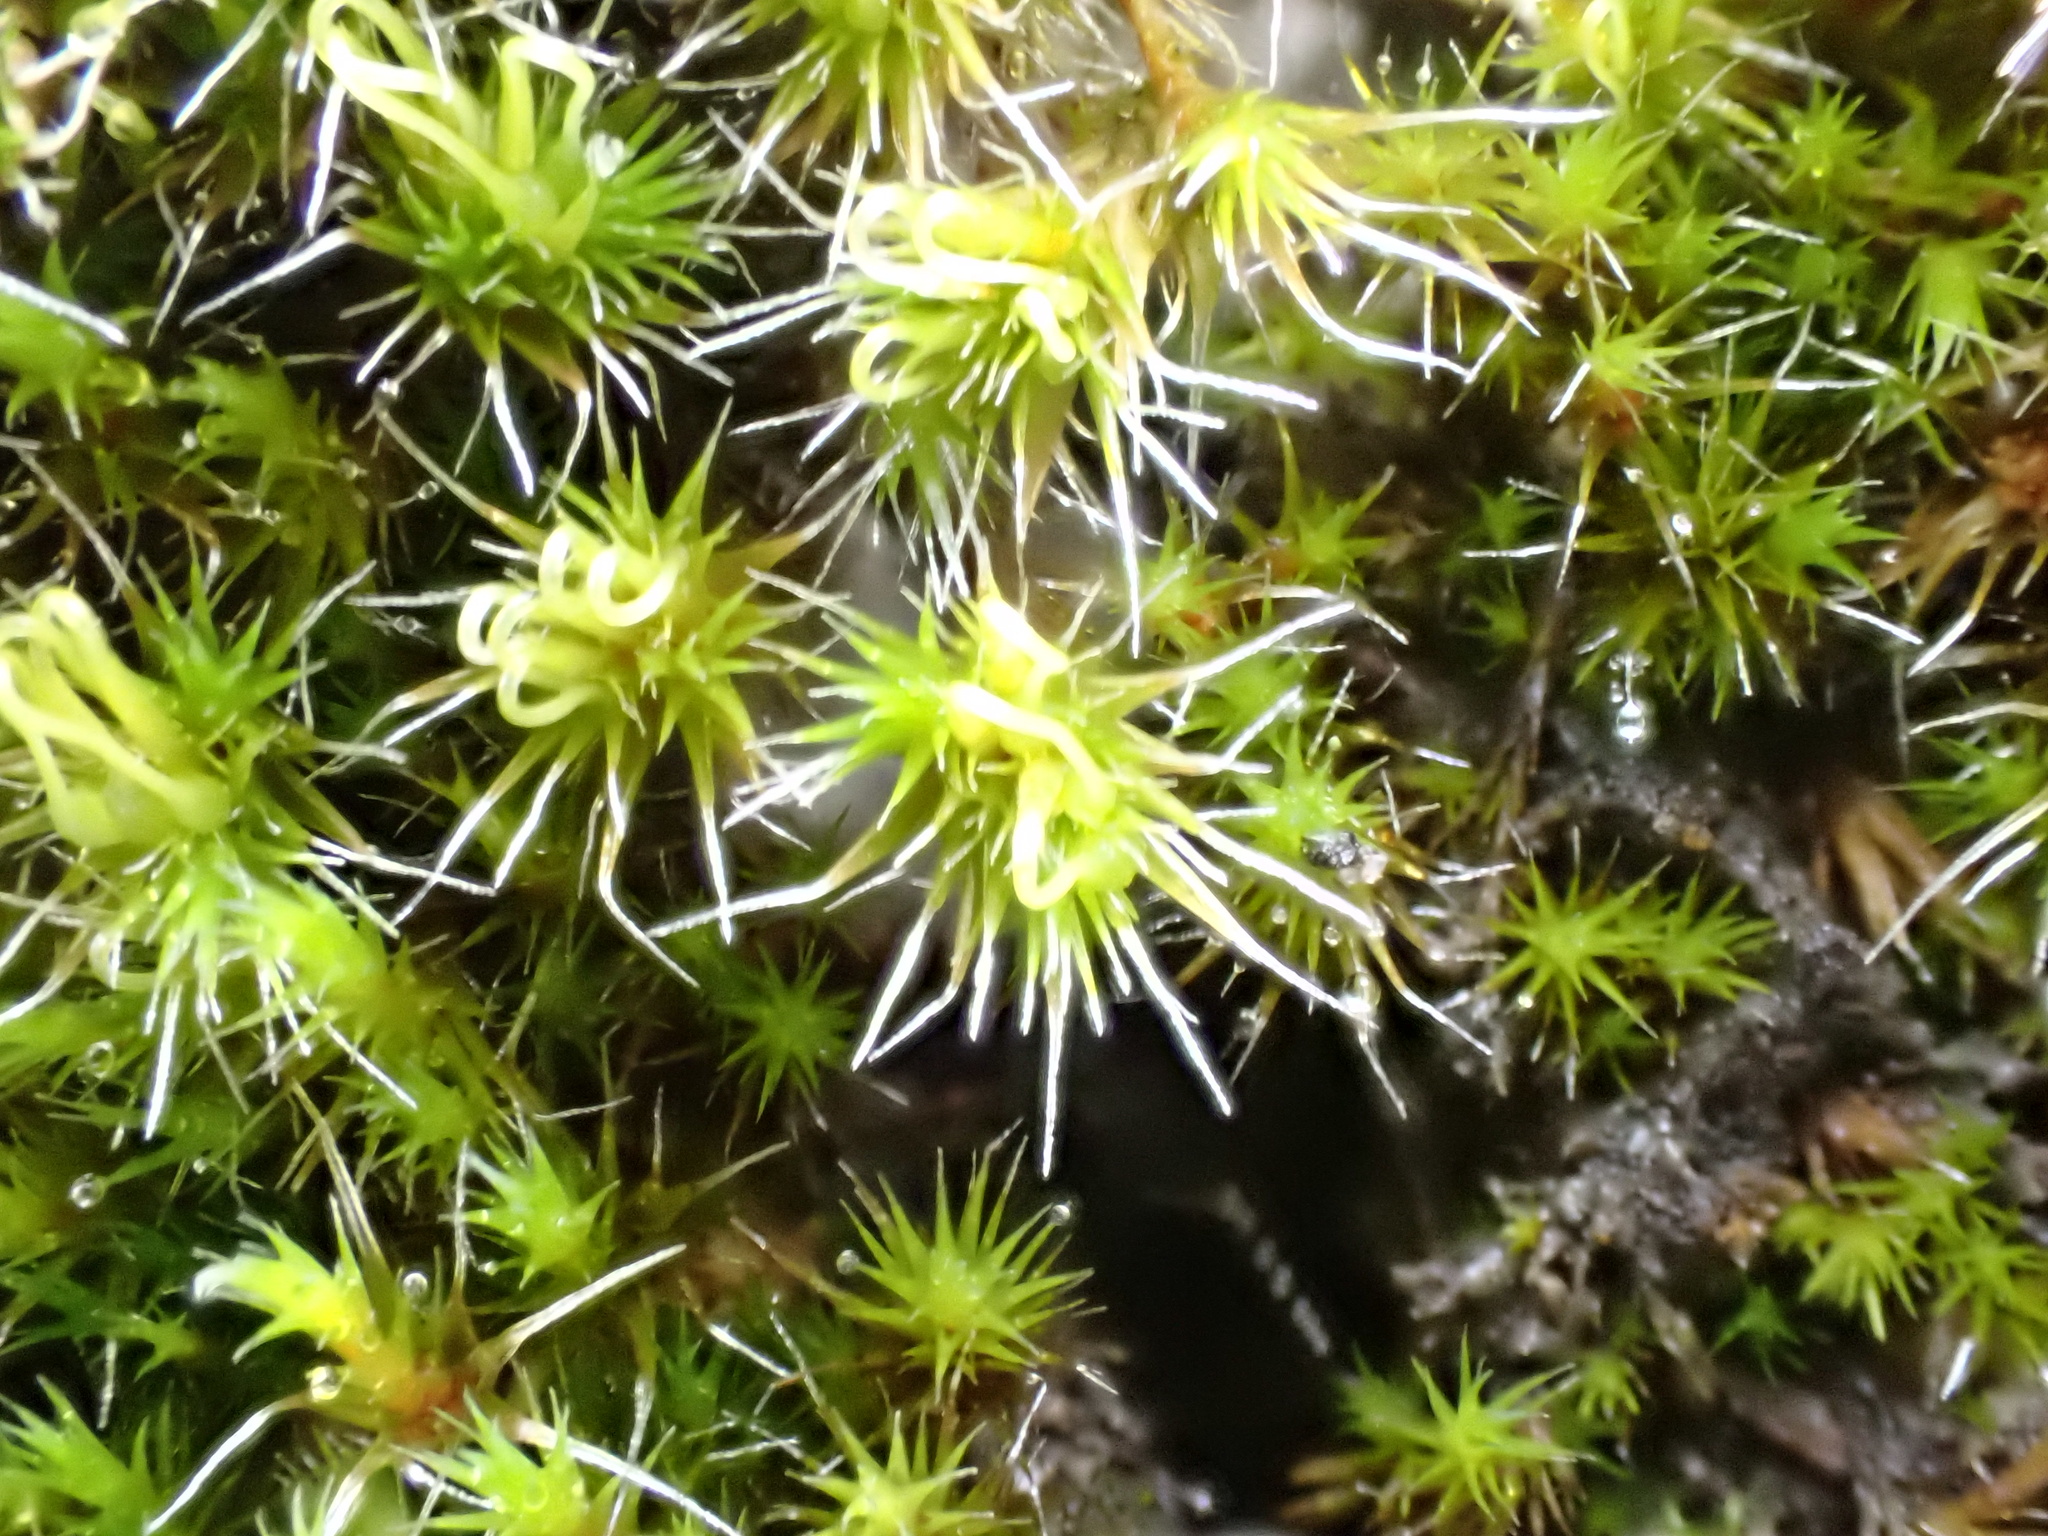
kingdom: Plantae
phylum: Bryophyta
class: Bryopsida
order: Dicranales
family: Leucobryaceae
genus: Campylopus
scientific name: Campylopus introflexus
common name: Heath star moss
